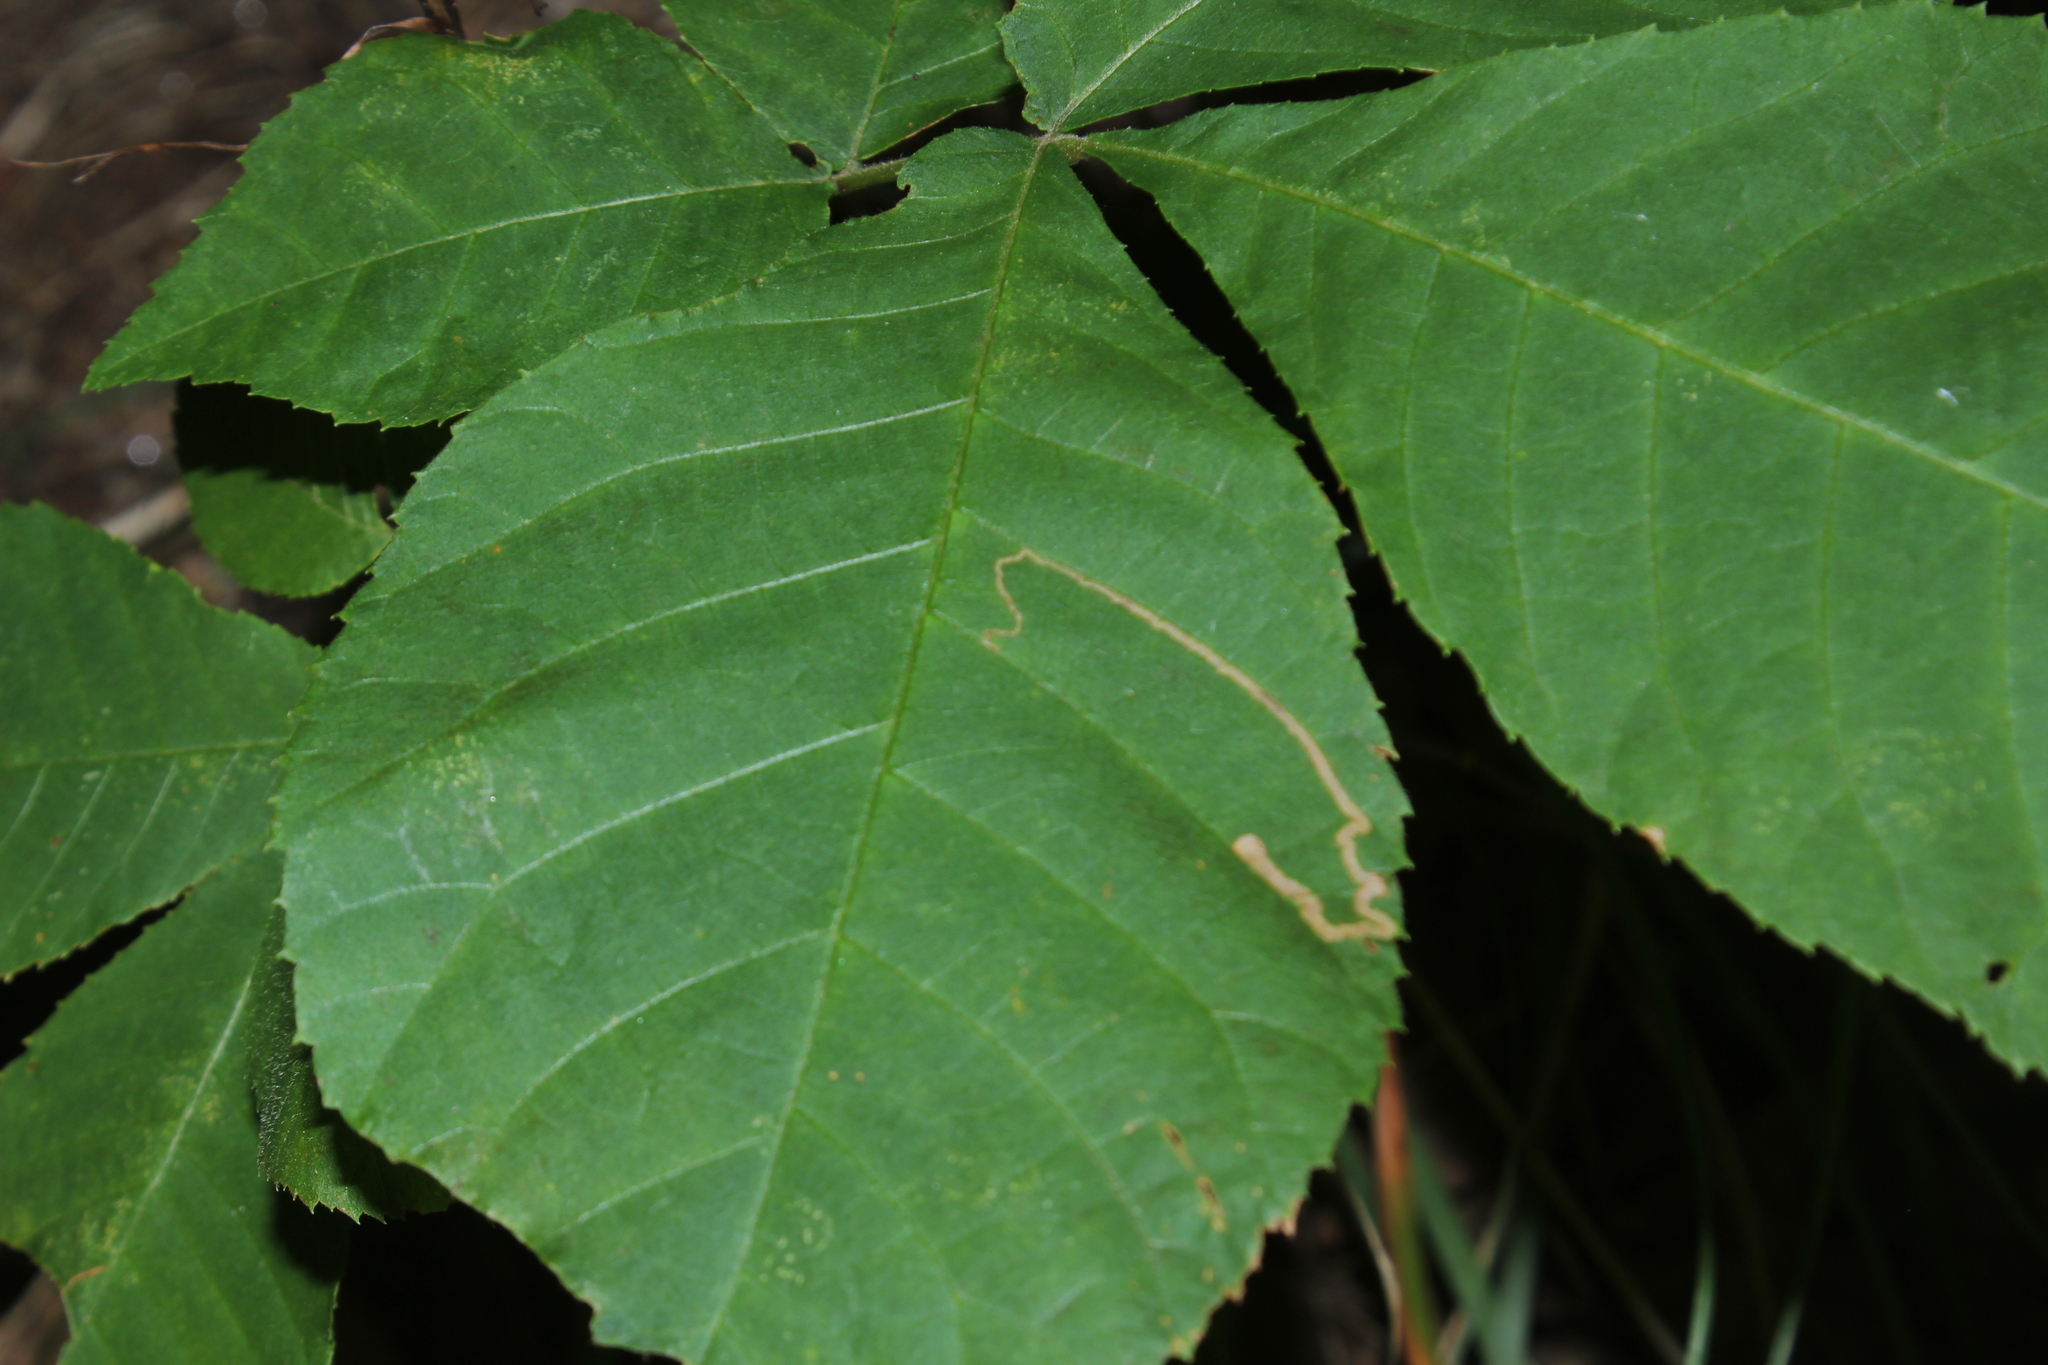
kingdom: Animalia
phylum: Arthropoda
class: Insecta
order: Lepidoptera
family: Nepticulidae
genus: Stigmella
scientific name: Stigmella betulicola
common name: Common birch pigmy
